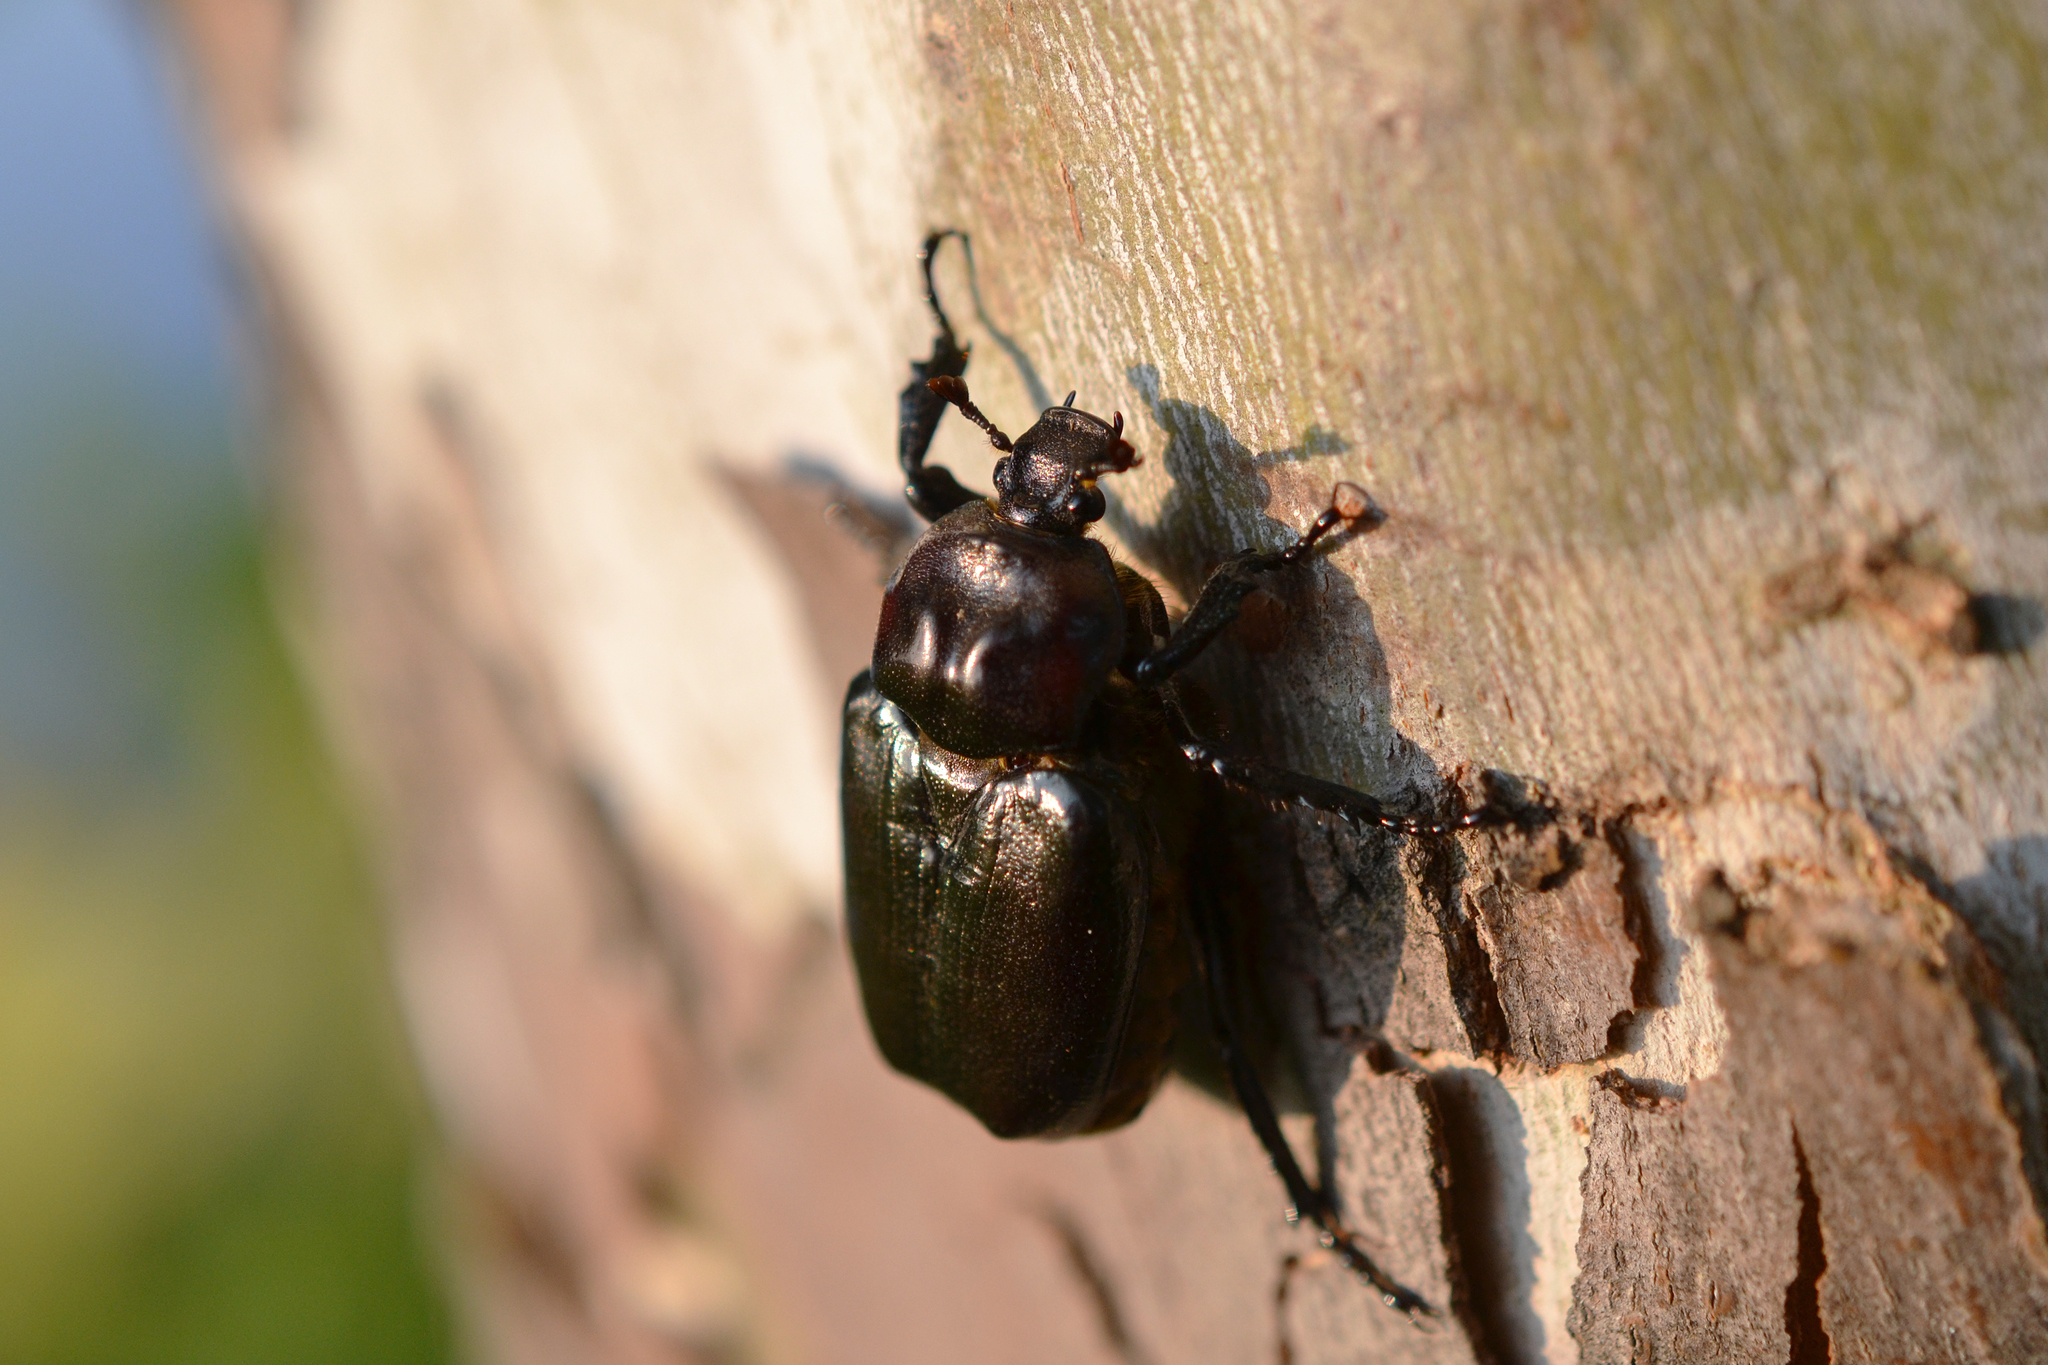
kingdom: Animalia
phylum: Arthropoda
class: Insecta
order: Coleoptera
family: Scarabaeidae
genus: Osmoderma
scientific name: Osmoderma eremicola
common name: Hermit flower beetle
